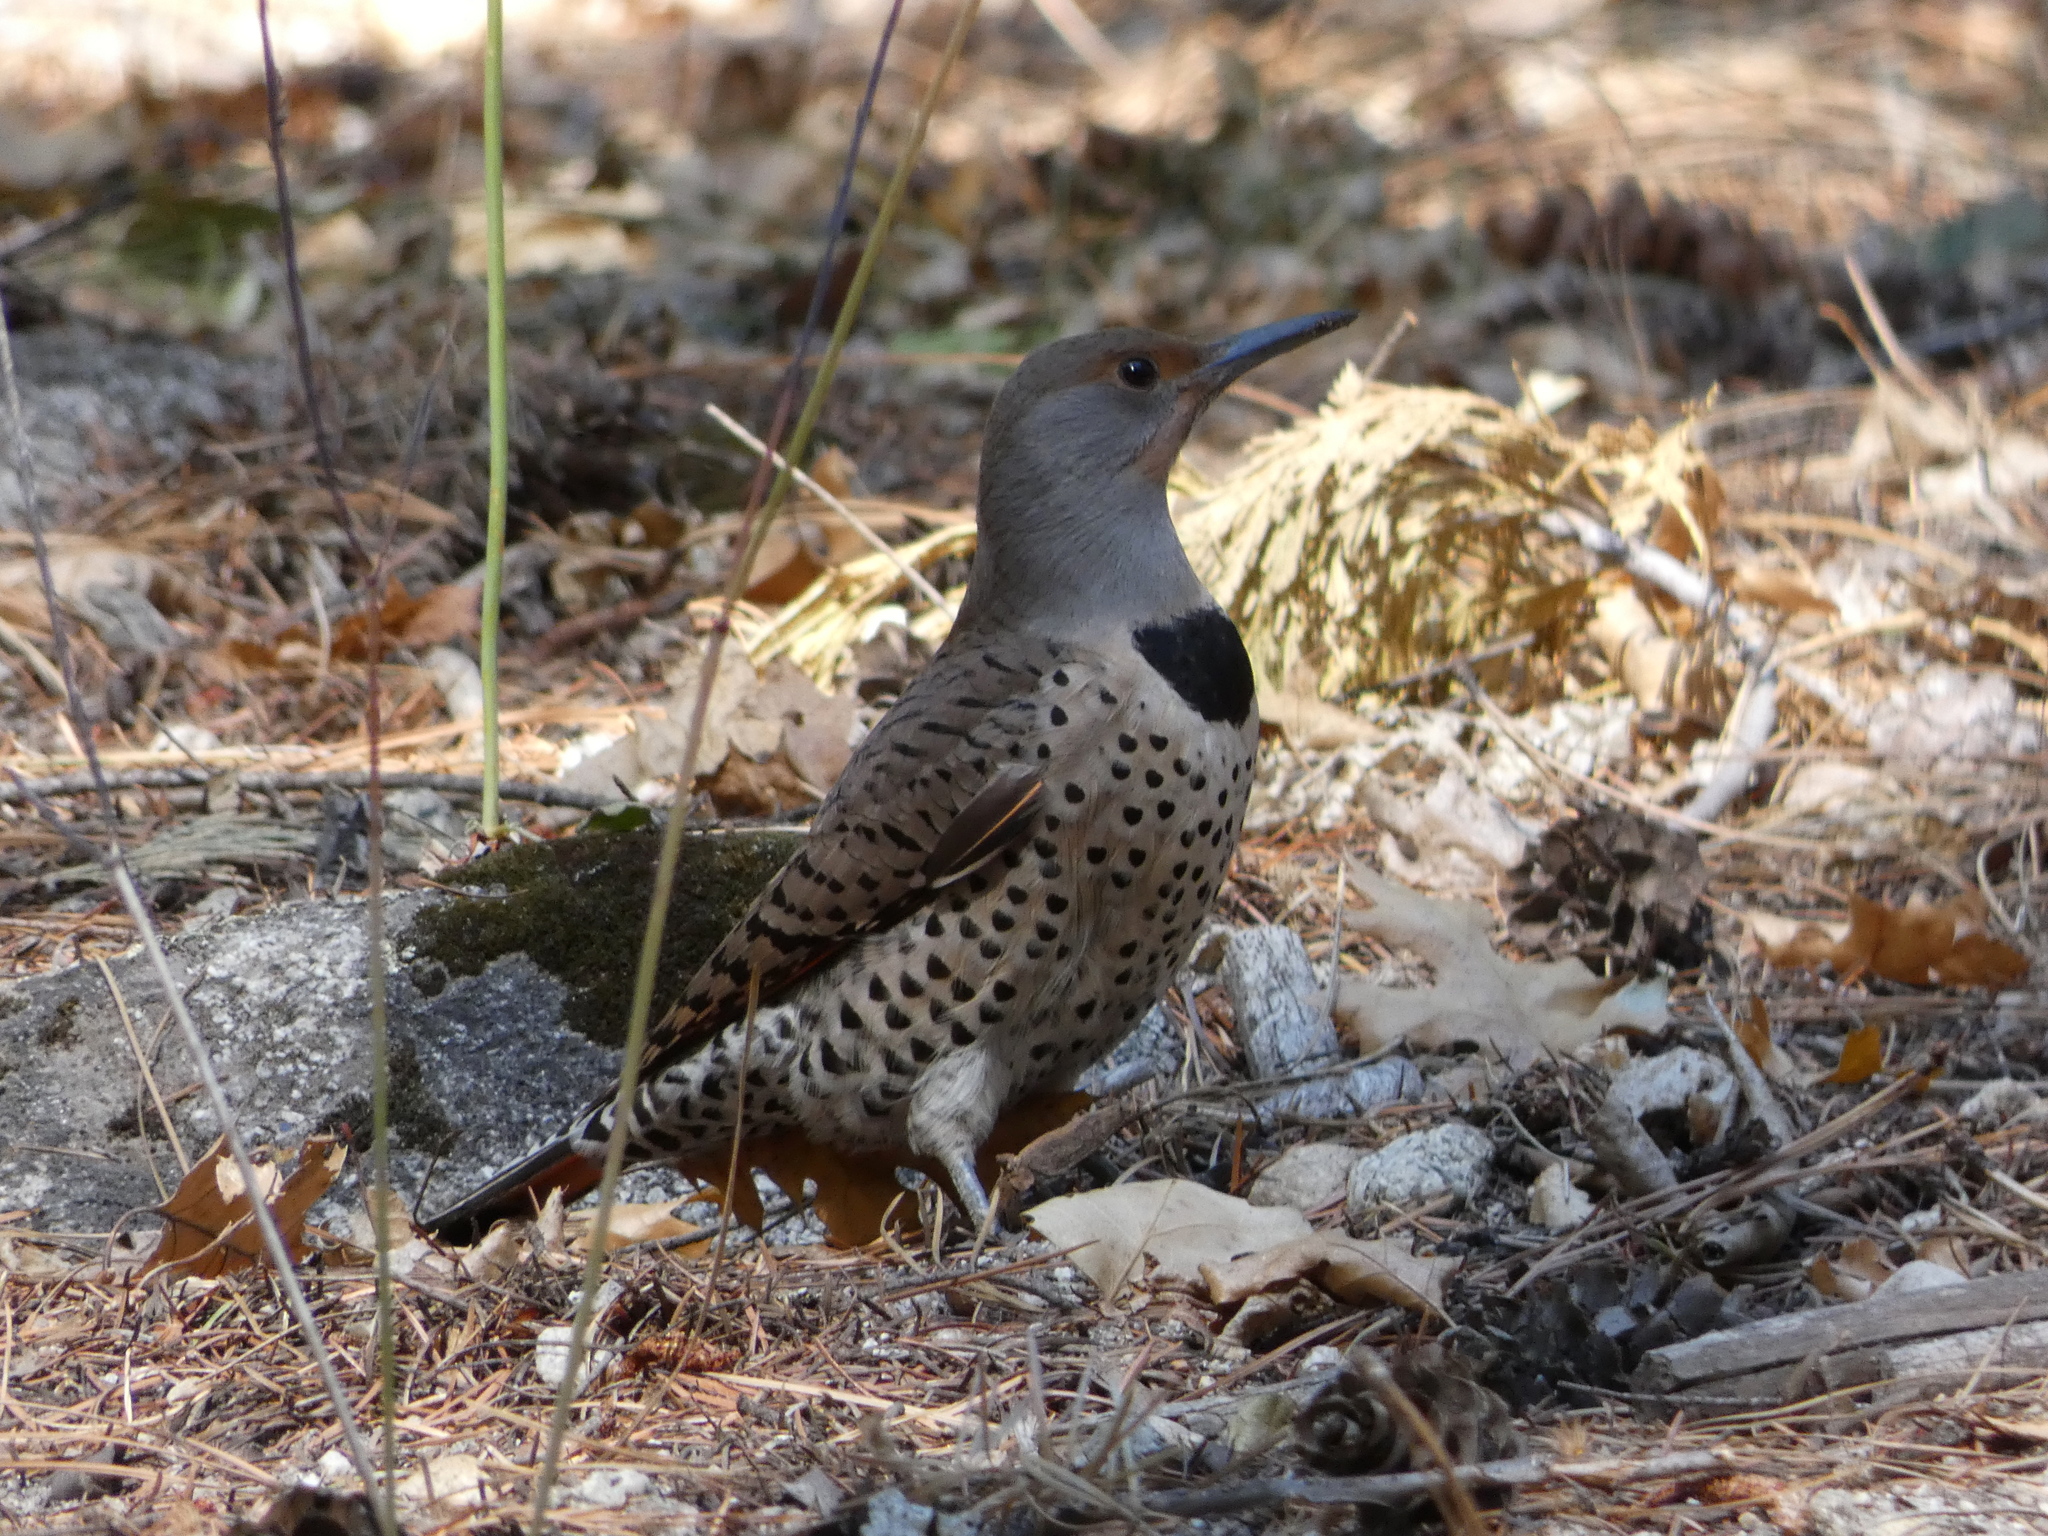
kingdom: Animalia
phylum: Chordata
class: Aves
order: Piciformes
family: Picidae
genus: Colaptes
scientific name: Colaptes auratus
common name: Northern flicker
